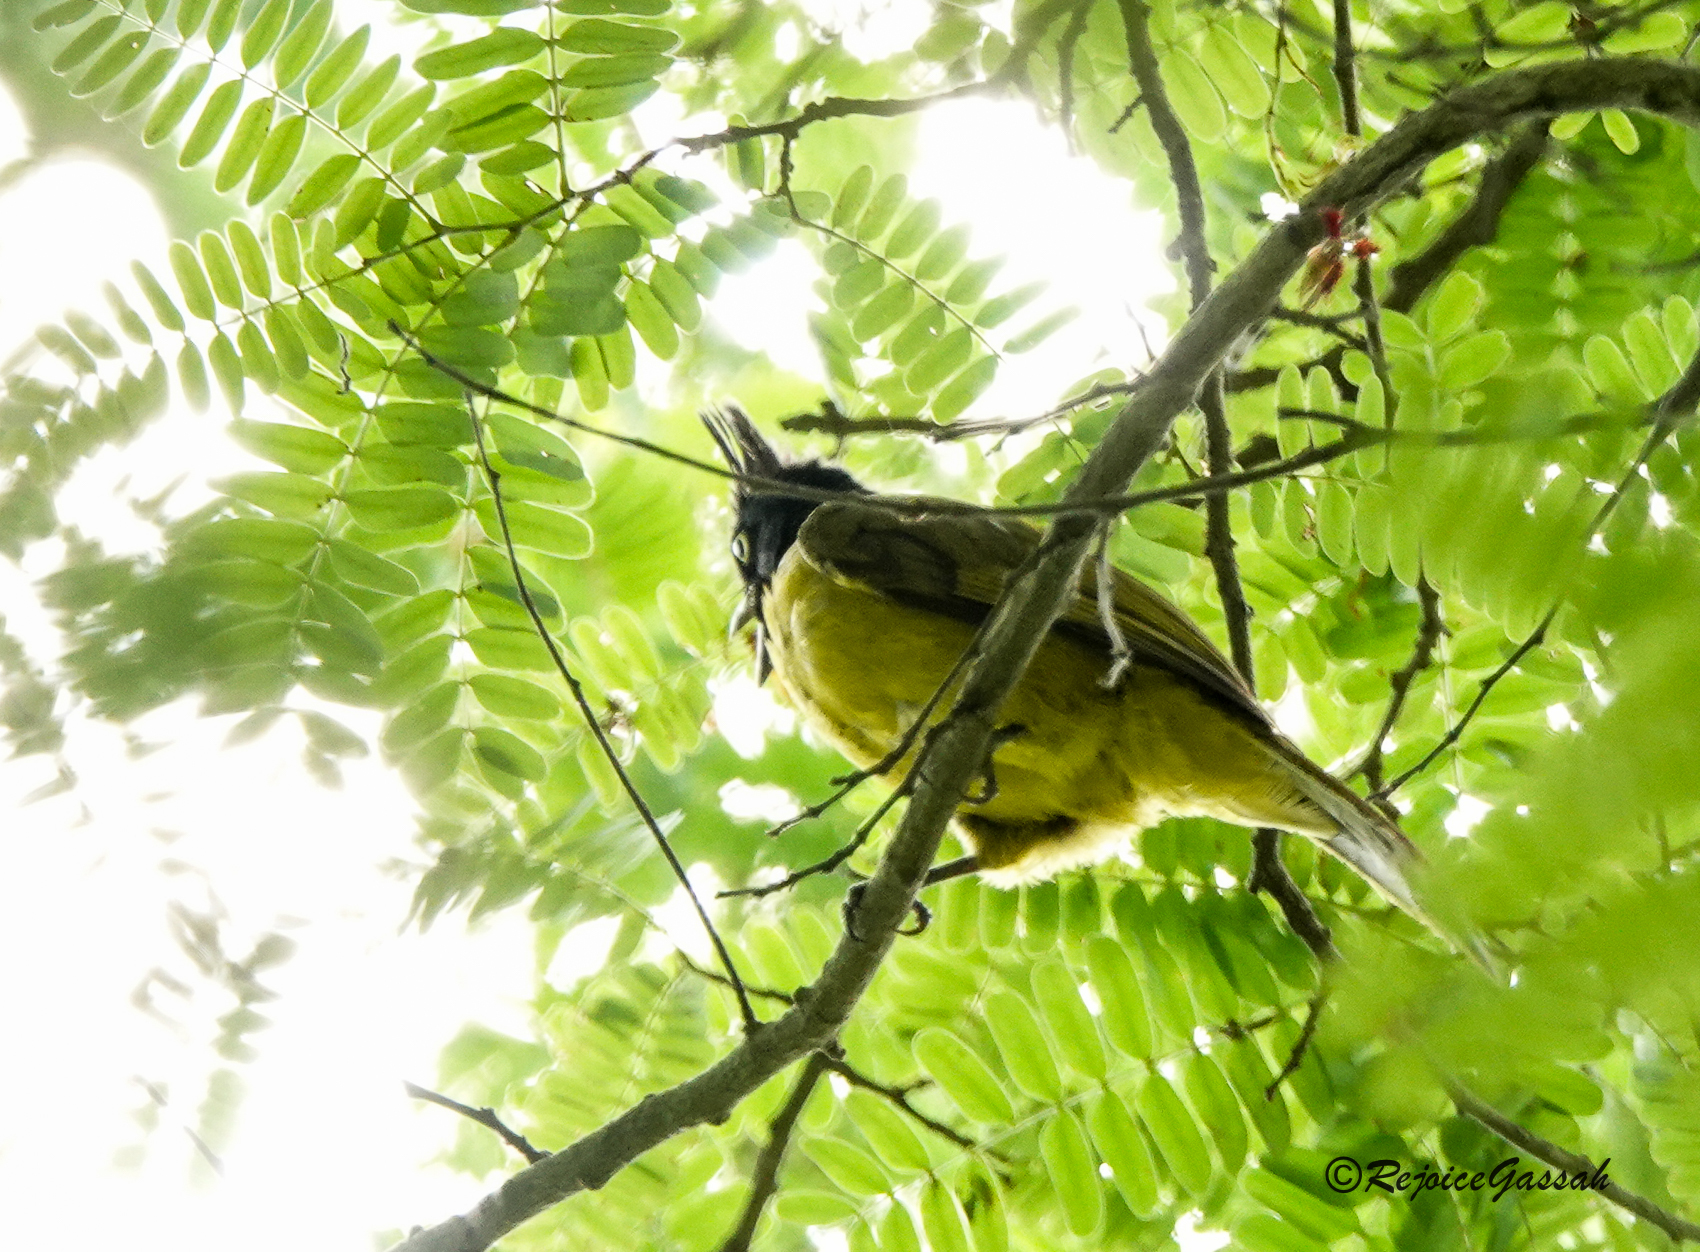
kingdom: Animalia
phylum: Chordata
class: Aves
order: Passeriformes
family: Pycnonotidae
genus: Pycnonotus
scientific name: Pycnonotus flaviventris
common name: Black-crested bulbul
